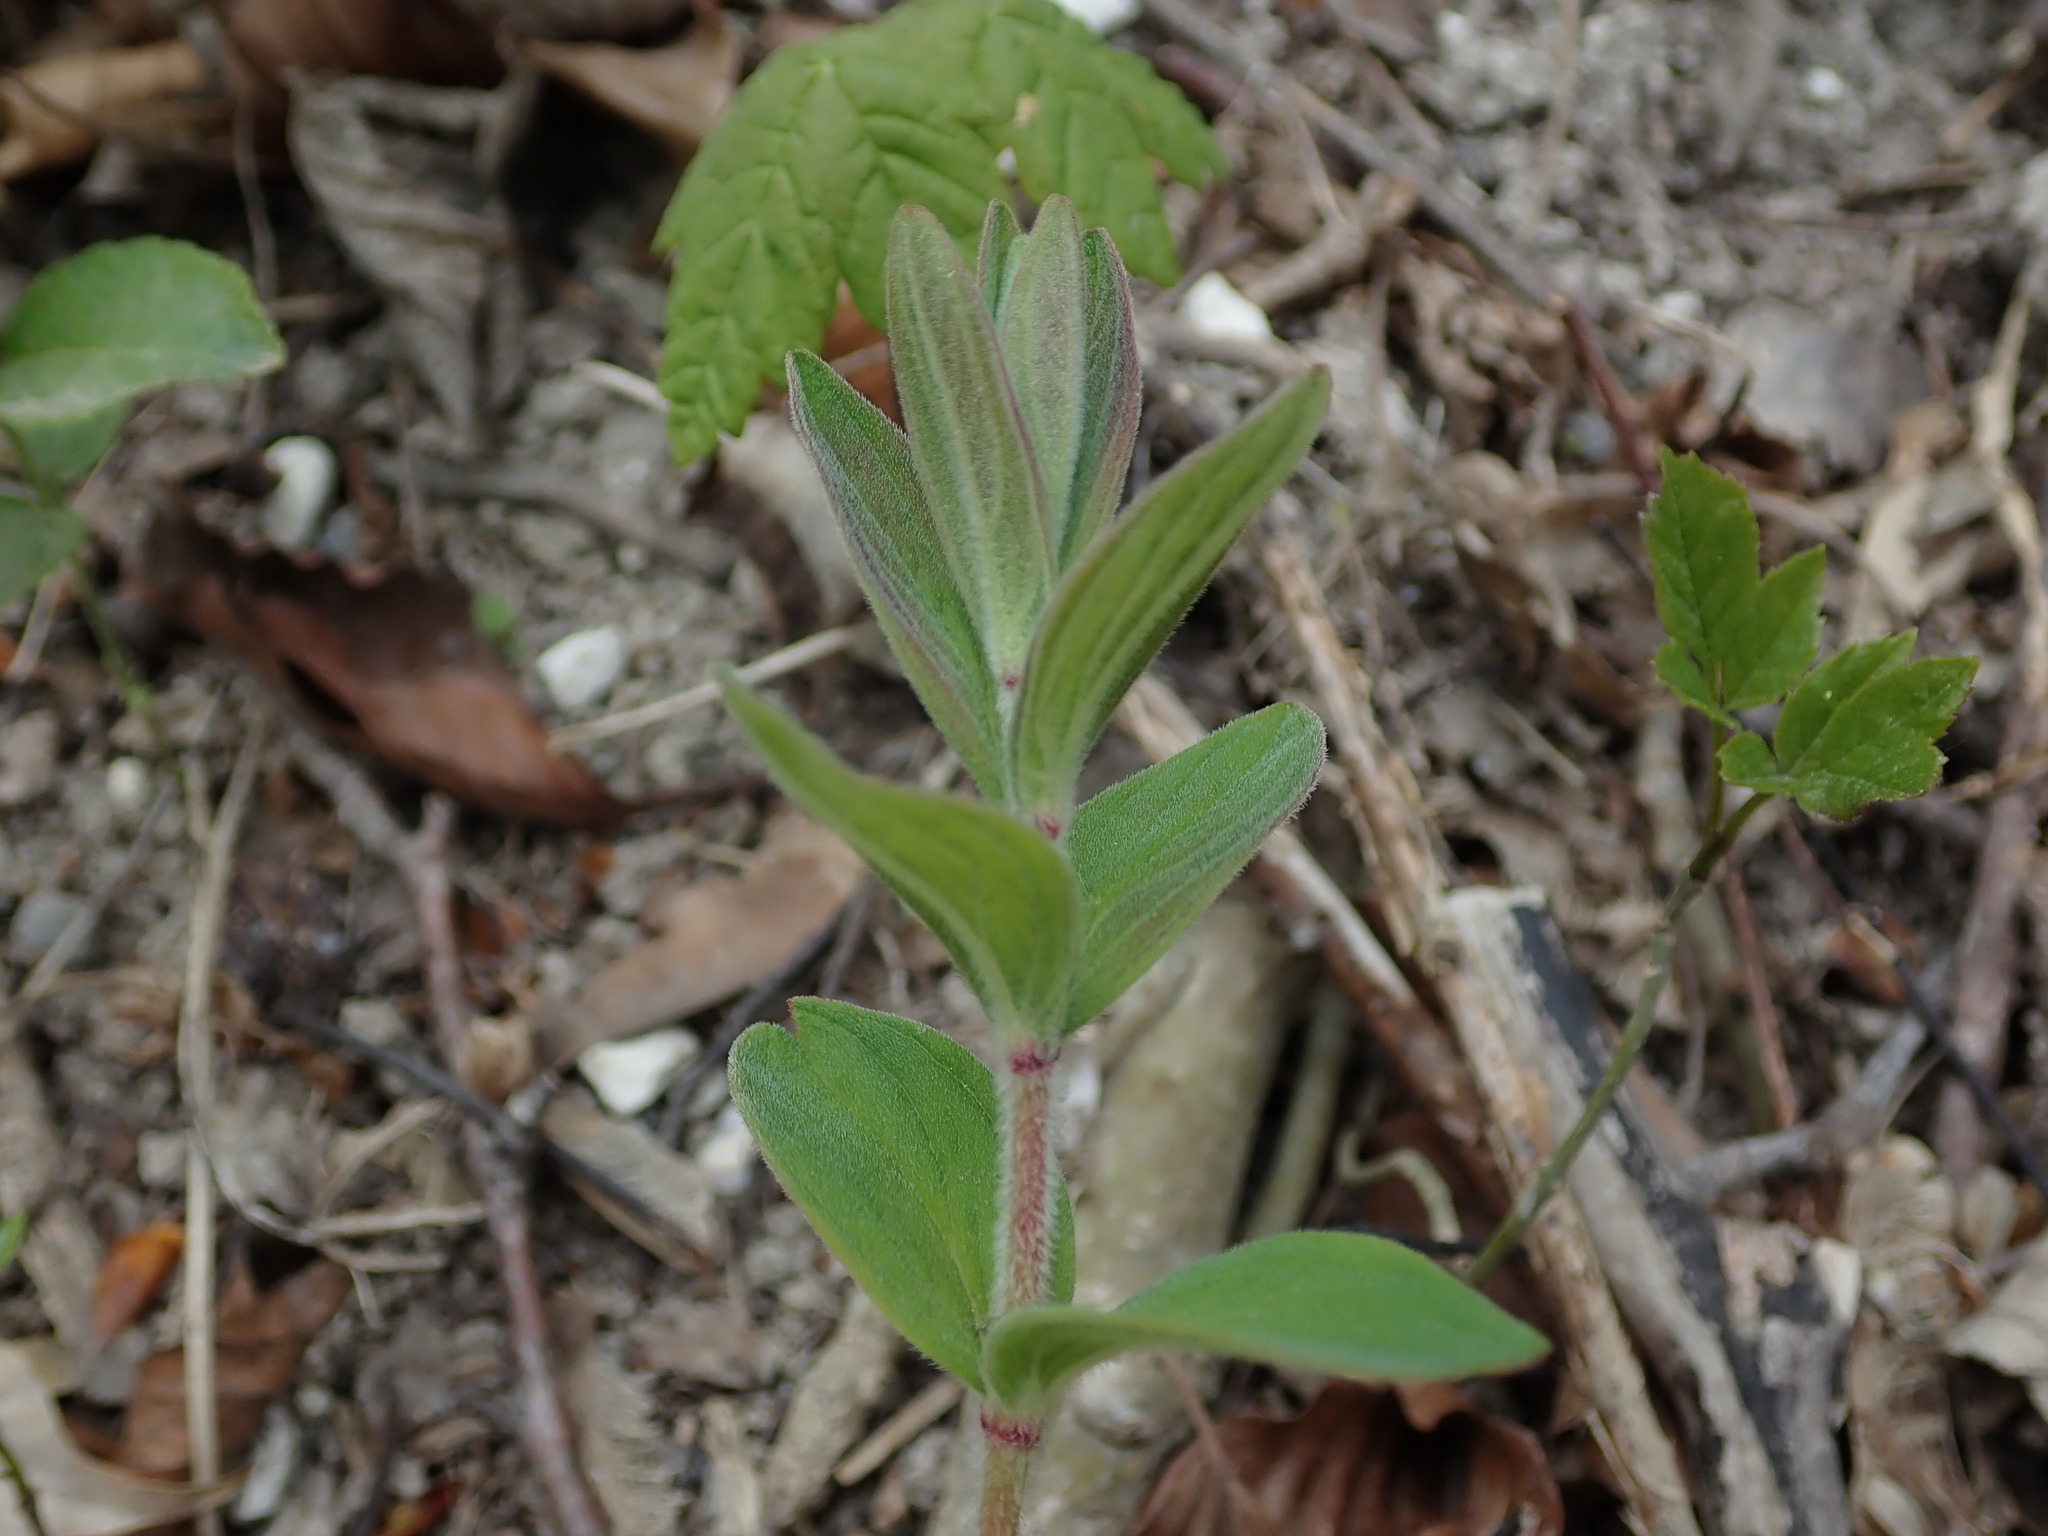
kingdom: Plantae
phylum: Tracheophyta
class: Magnoliopsida
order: Malpighiales
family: Hypericaceae
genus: Hypericum
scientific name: Hypericum hirsutum
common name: Hairy st. john's-wort
